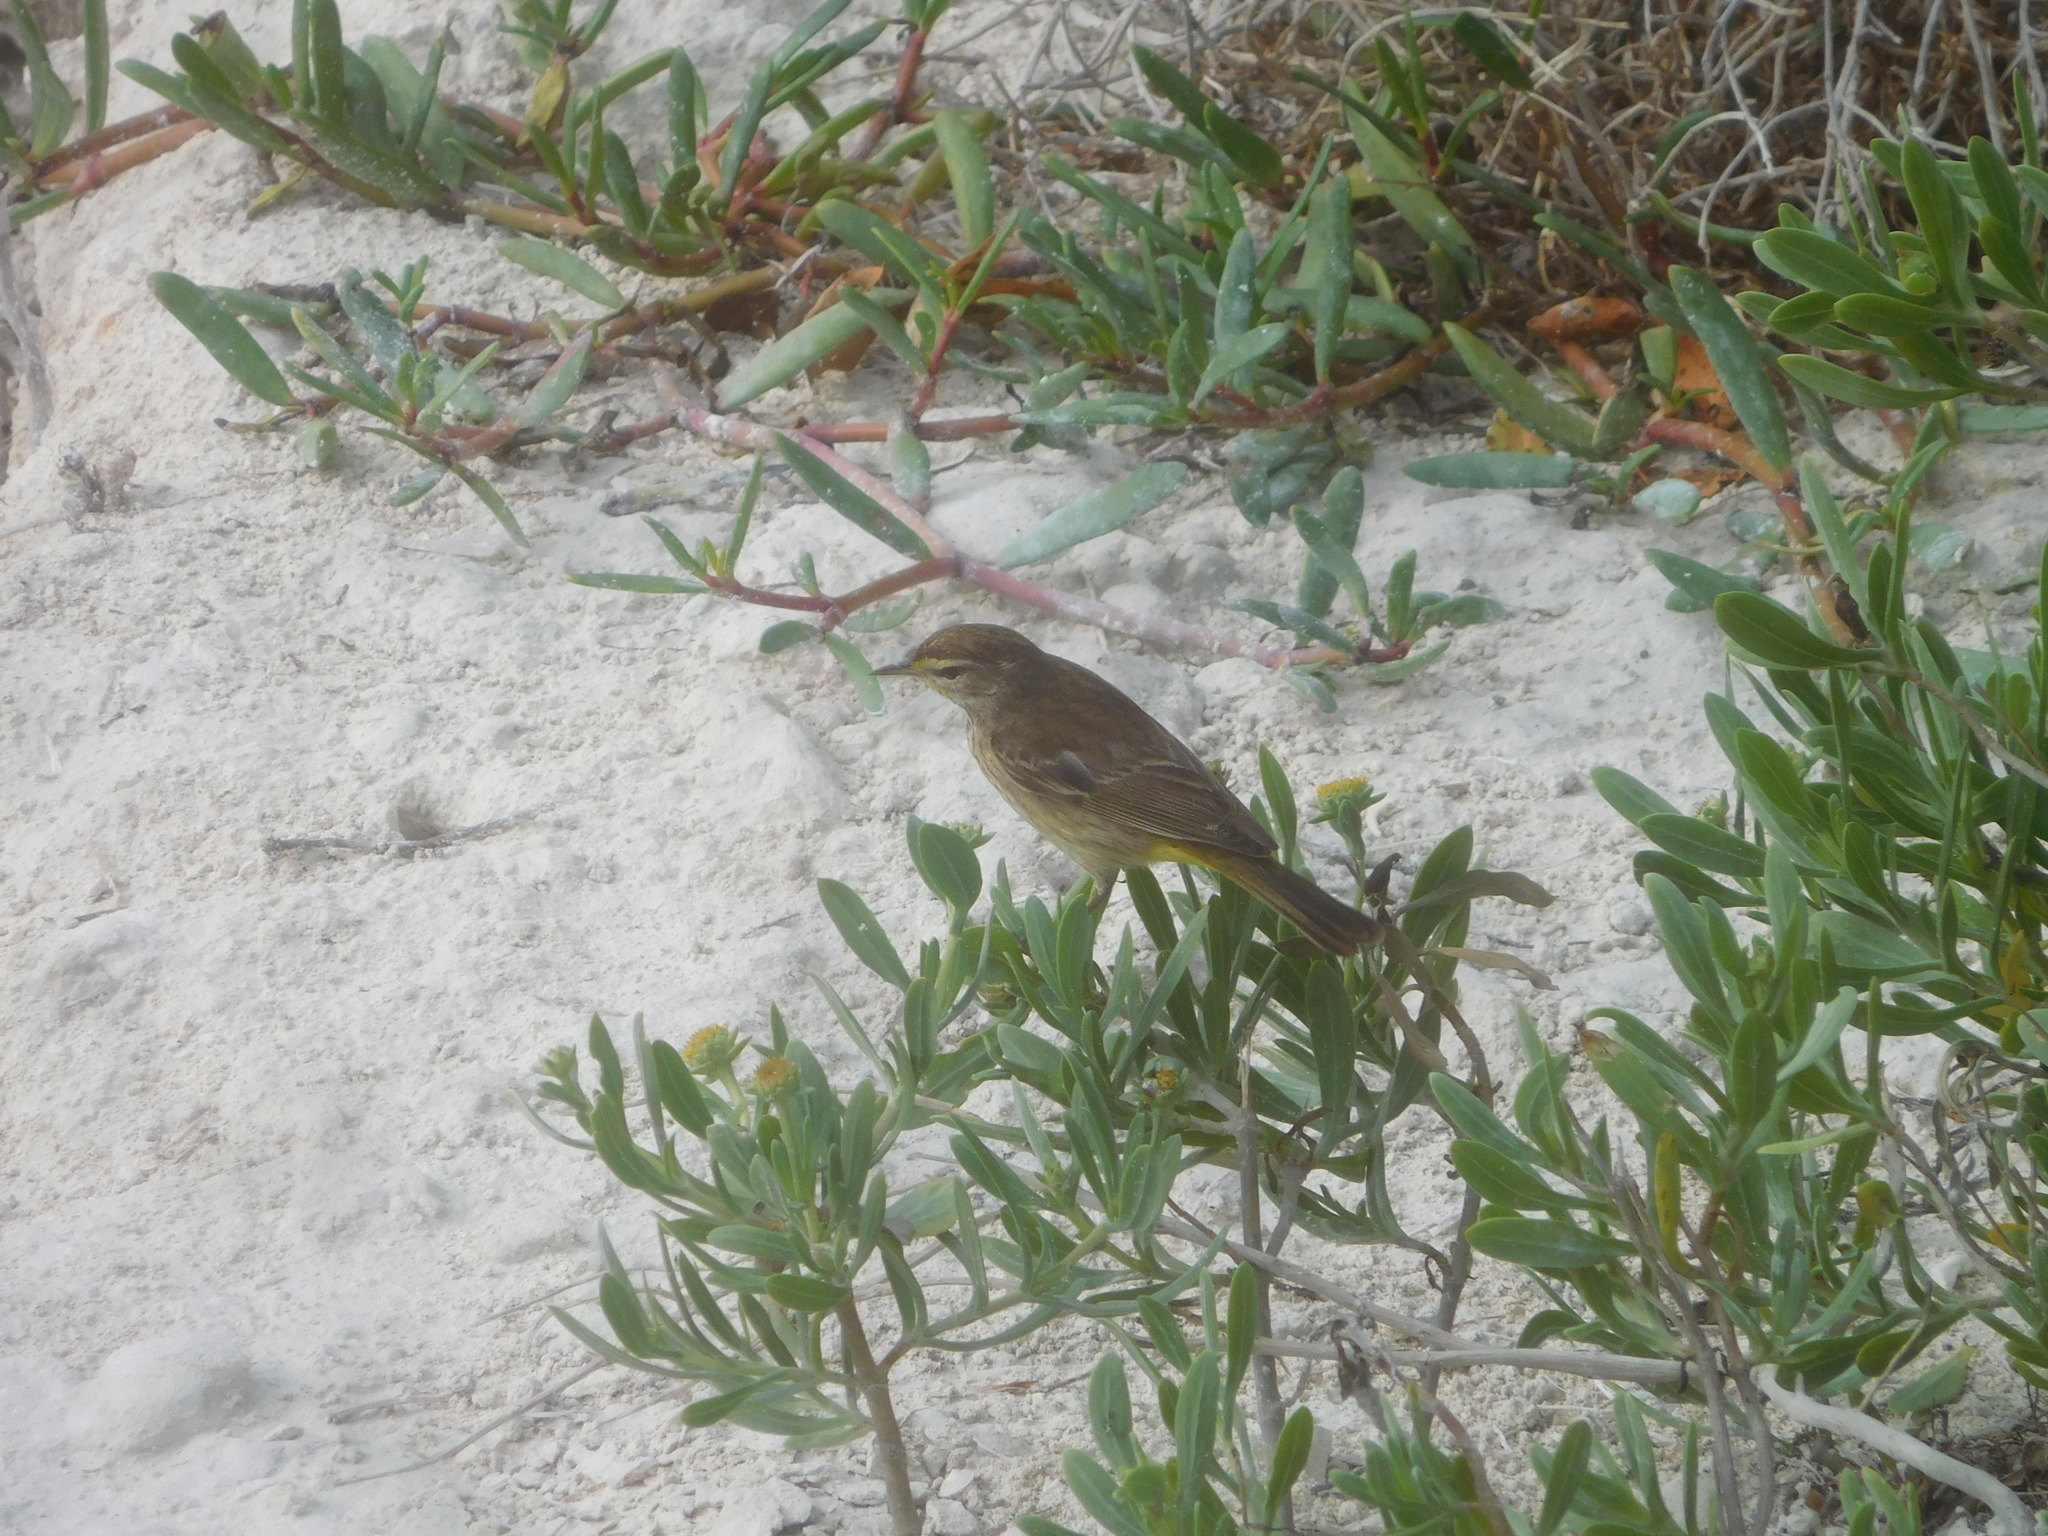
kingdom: Animalia
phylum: Chordata
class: Aves
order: Passeriformes
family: Parulidae
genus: Setophaga
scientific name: Setophaga palmarum
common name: Palm warbler
